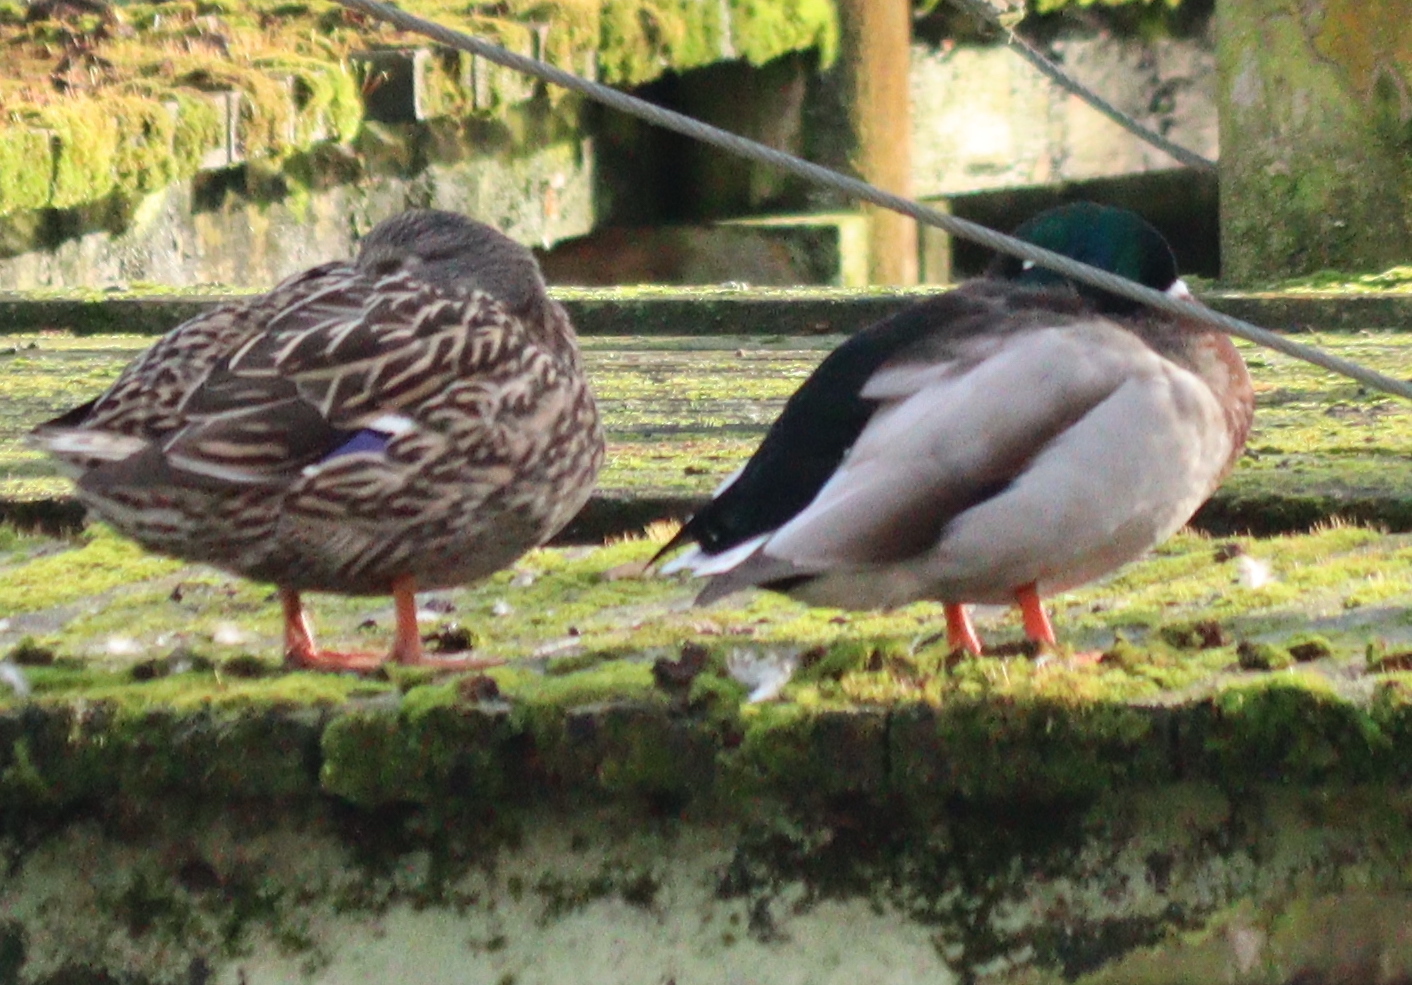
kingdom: Animalia
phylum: Chordata
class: Aves
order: Anseriformes
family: Anatidae
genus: Anas
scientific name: Anas platyrhynchos
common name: Mallard
